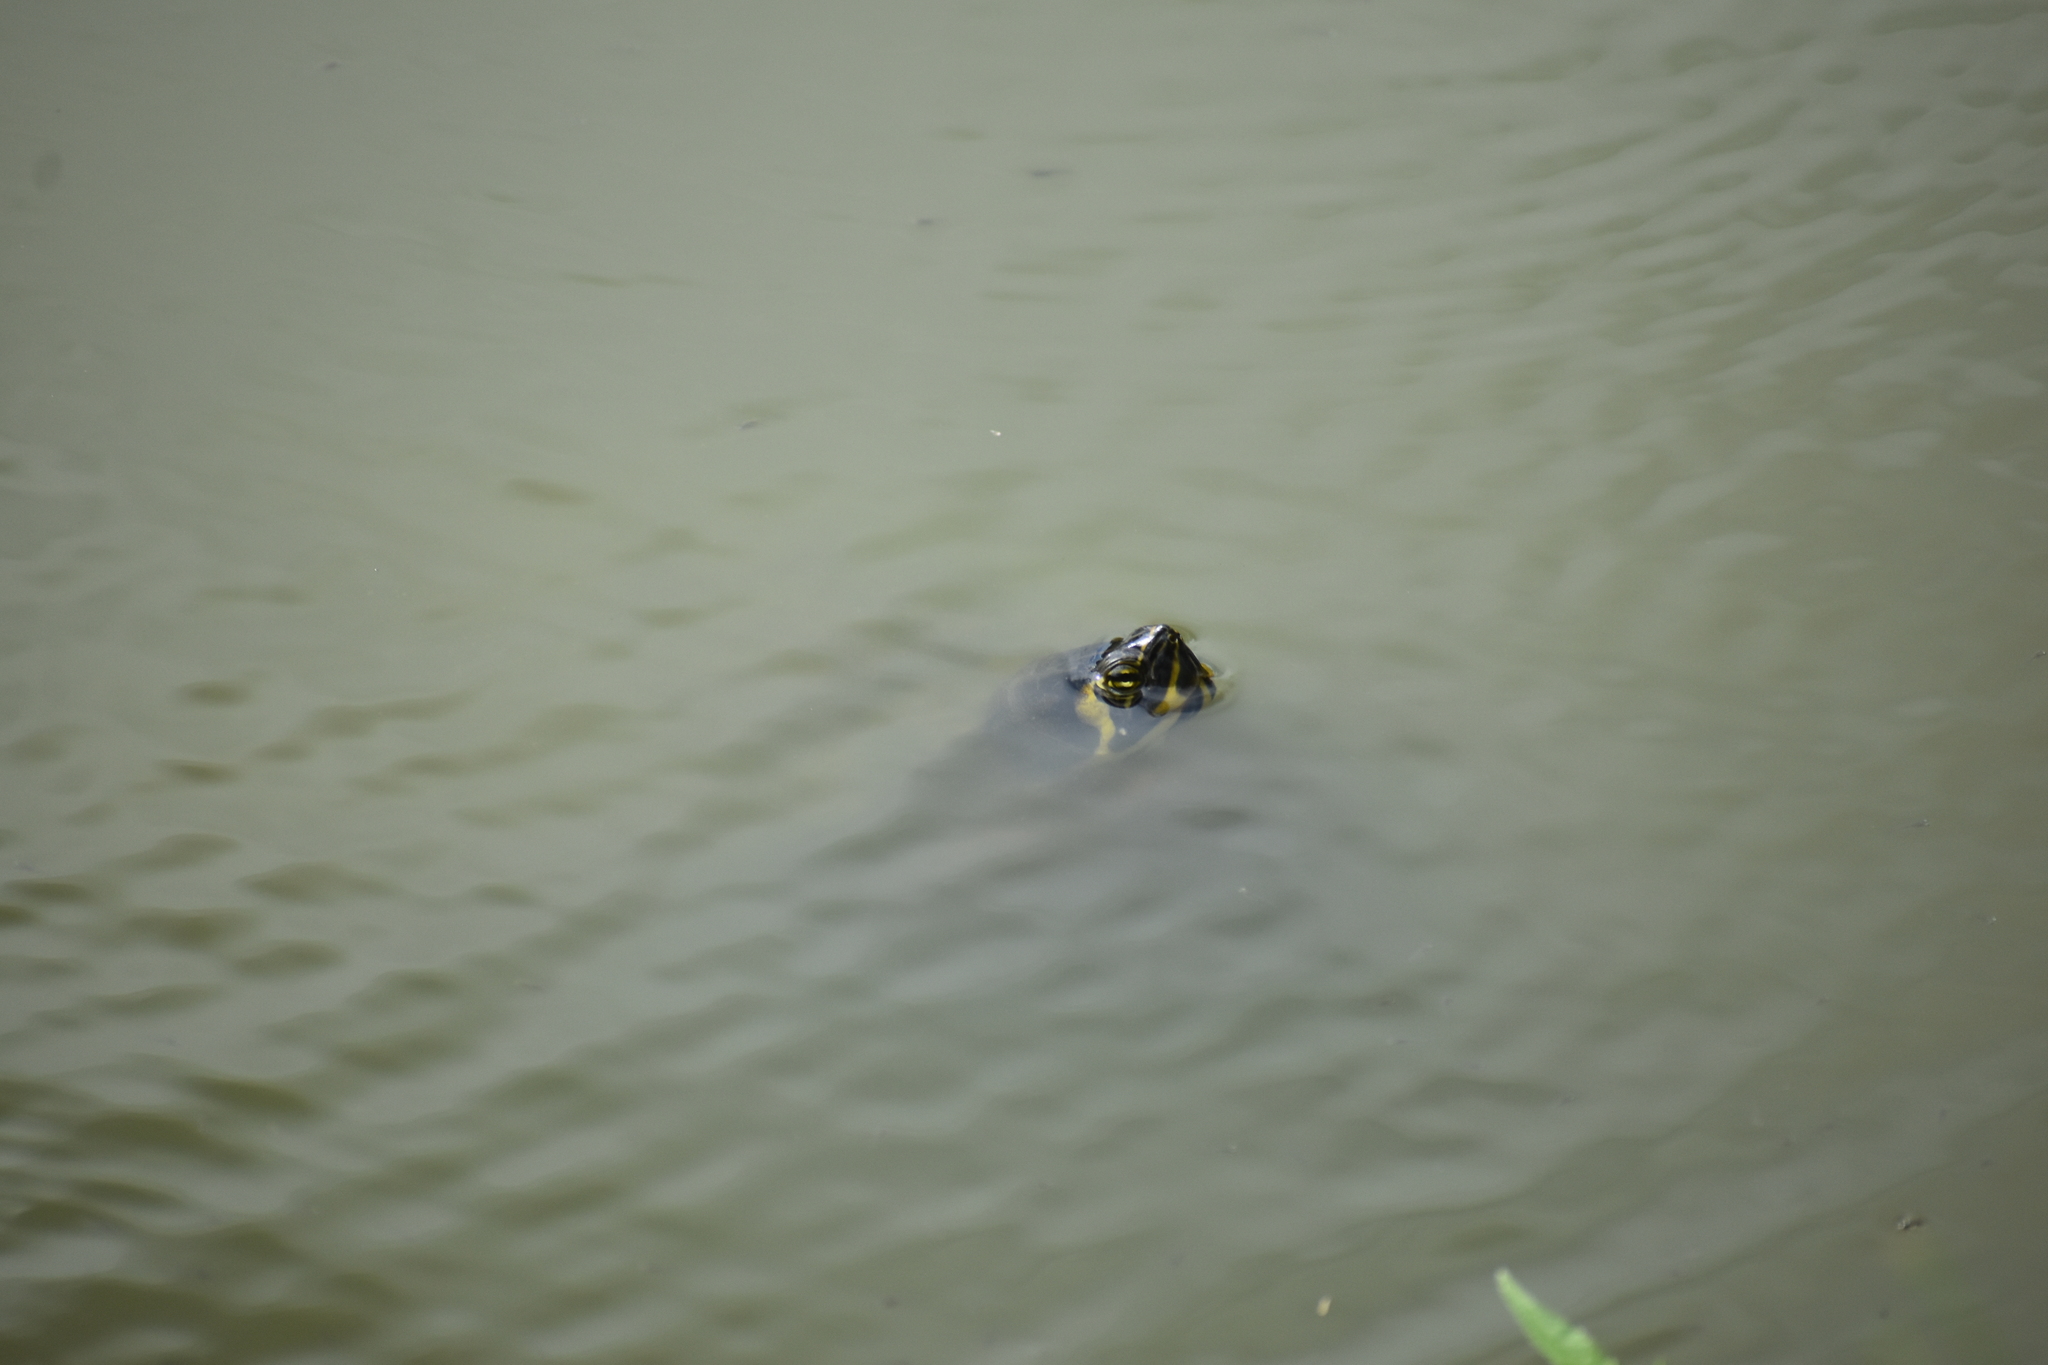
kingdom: Animalia
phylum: Chordata
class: Testudines
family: Emydidae
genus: Trachemys
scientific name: Trachemys scripta
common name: Slider
